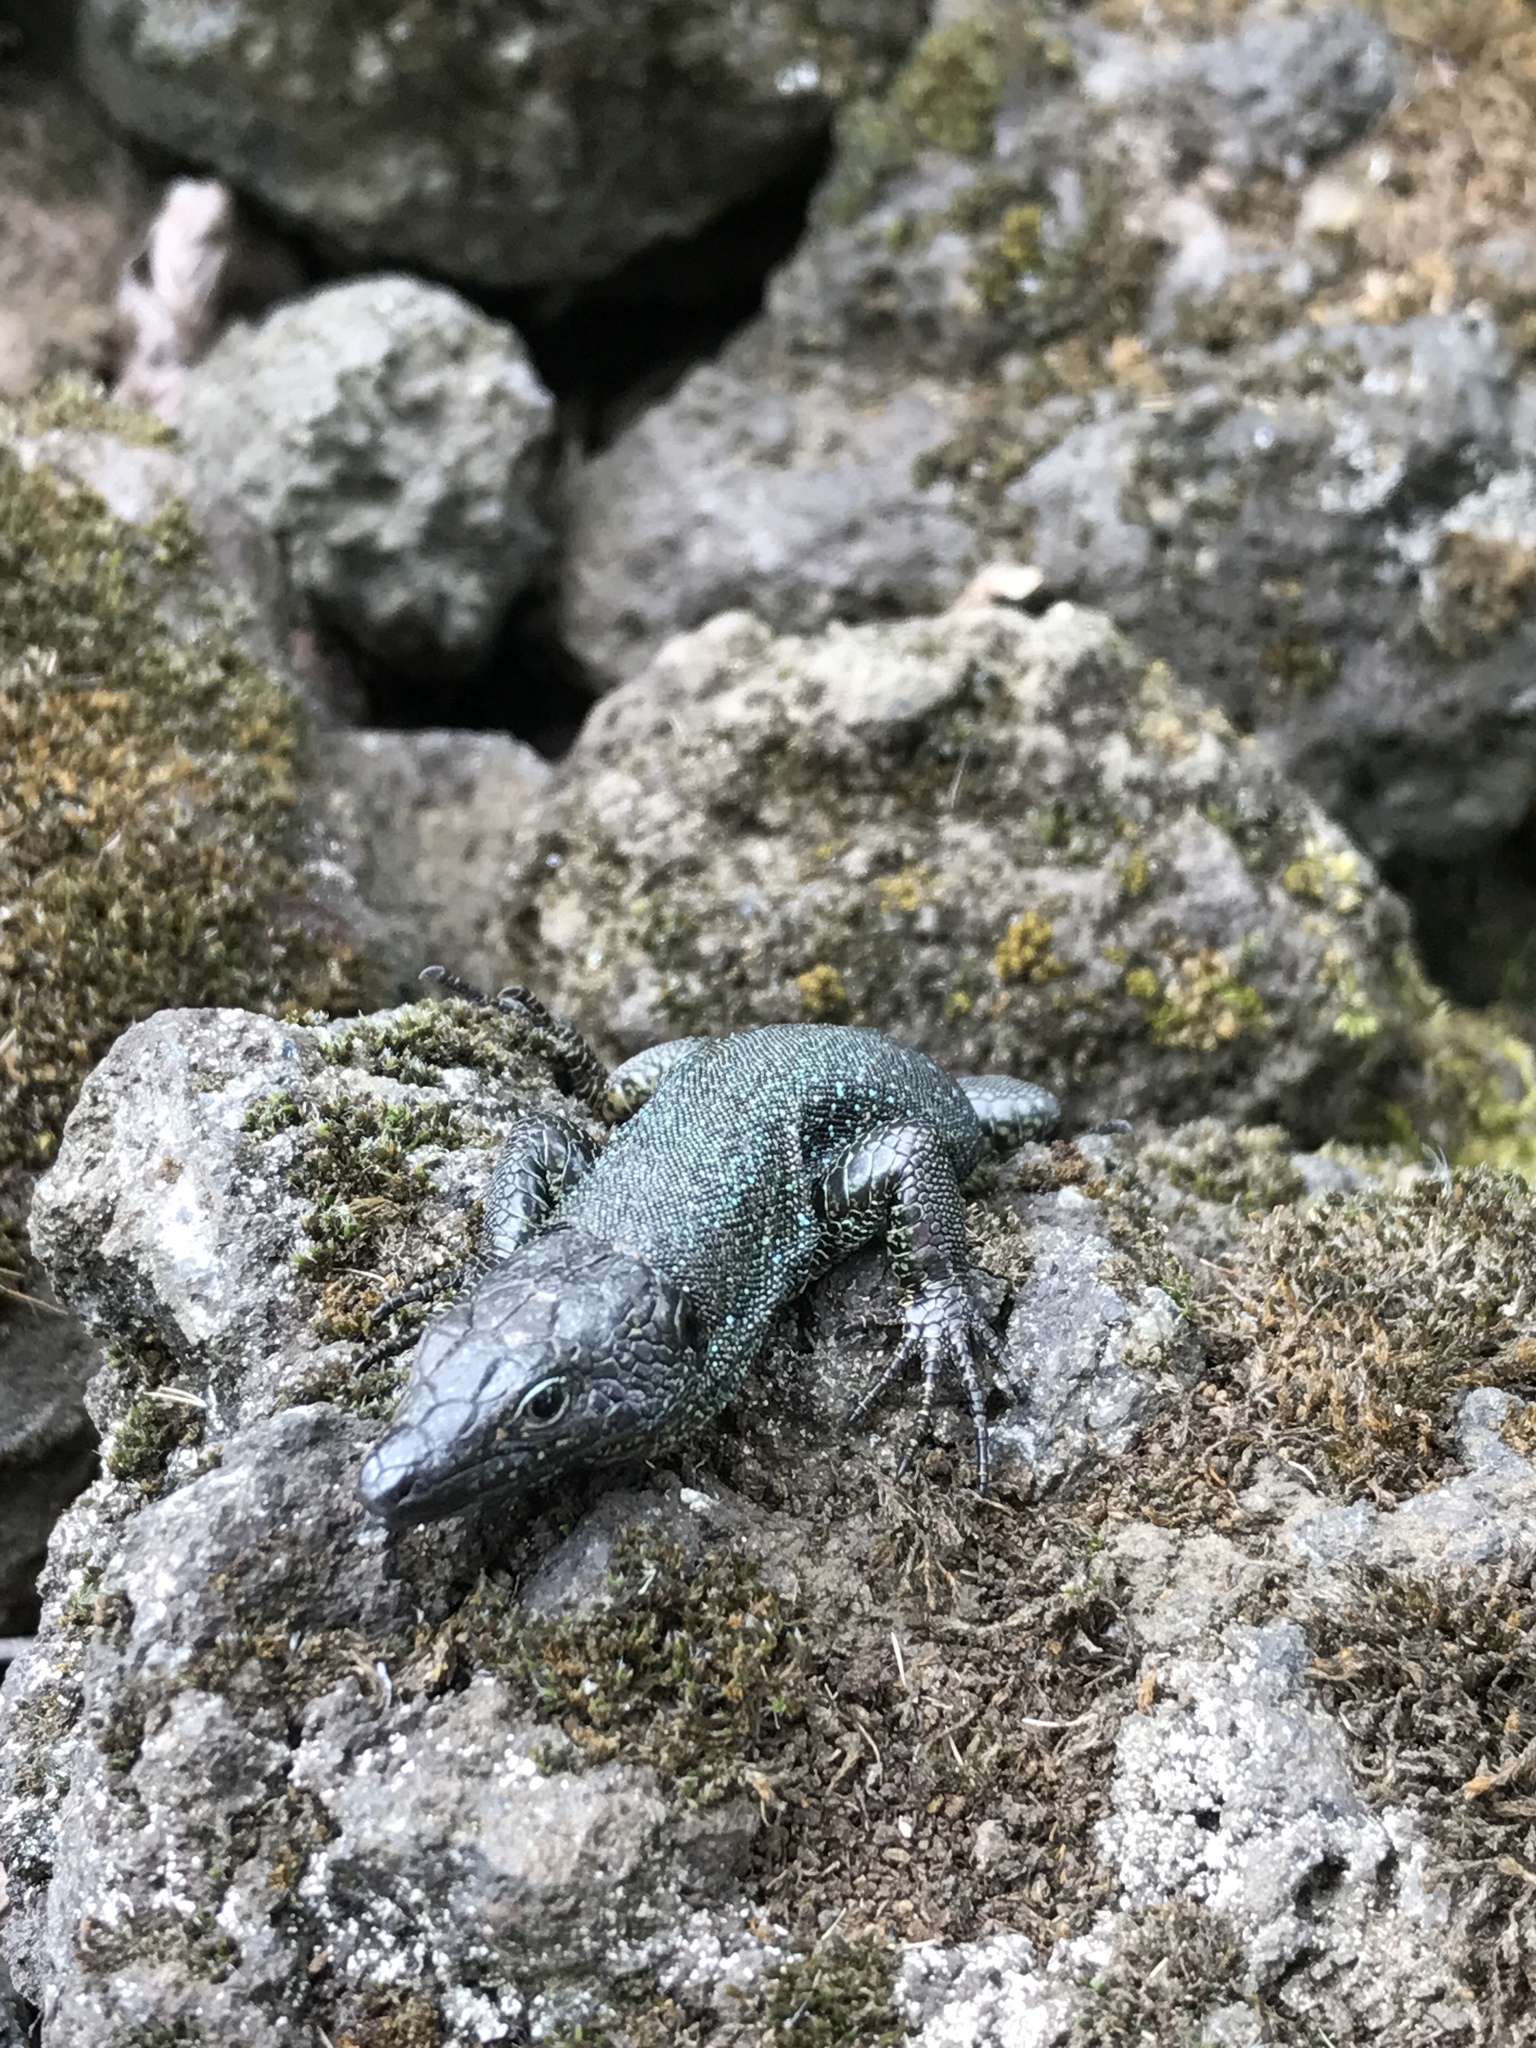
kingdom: Animalia
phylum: Chordata
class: Squamata
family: Lacertidae
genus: Teira
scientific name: Teira dugesii
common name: Madeira lizard
